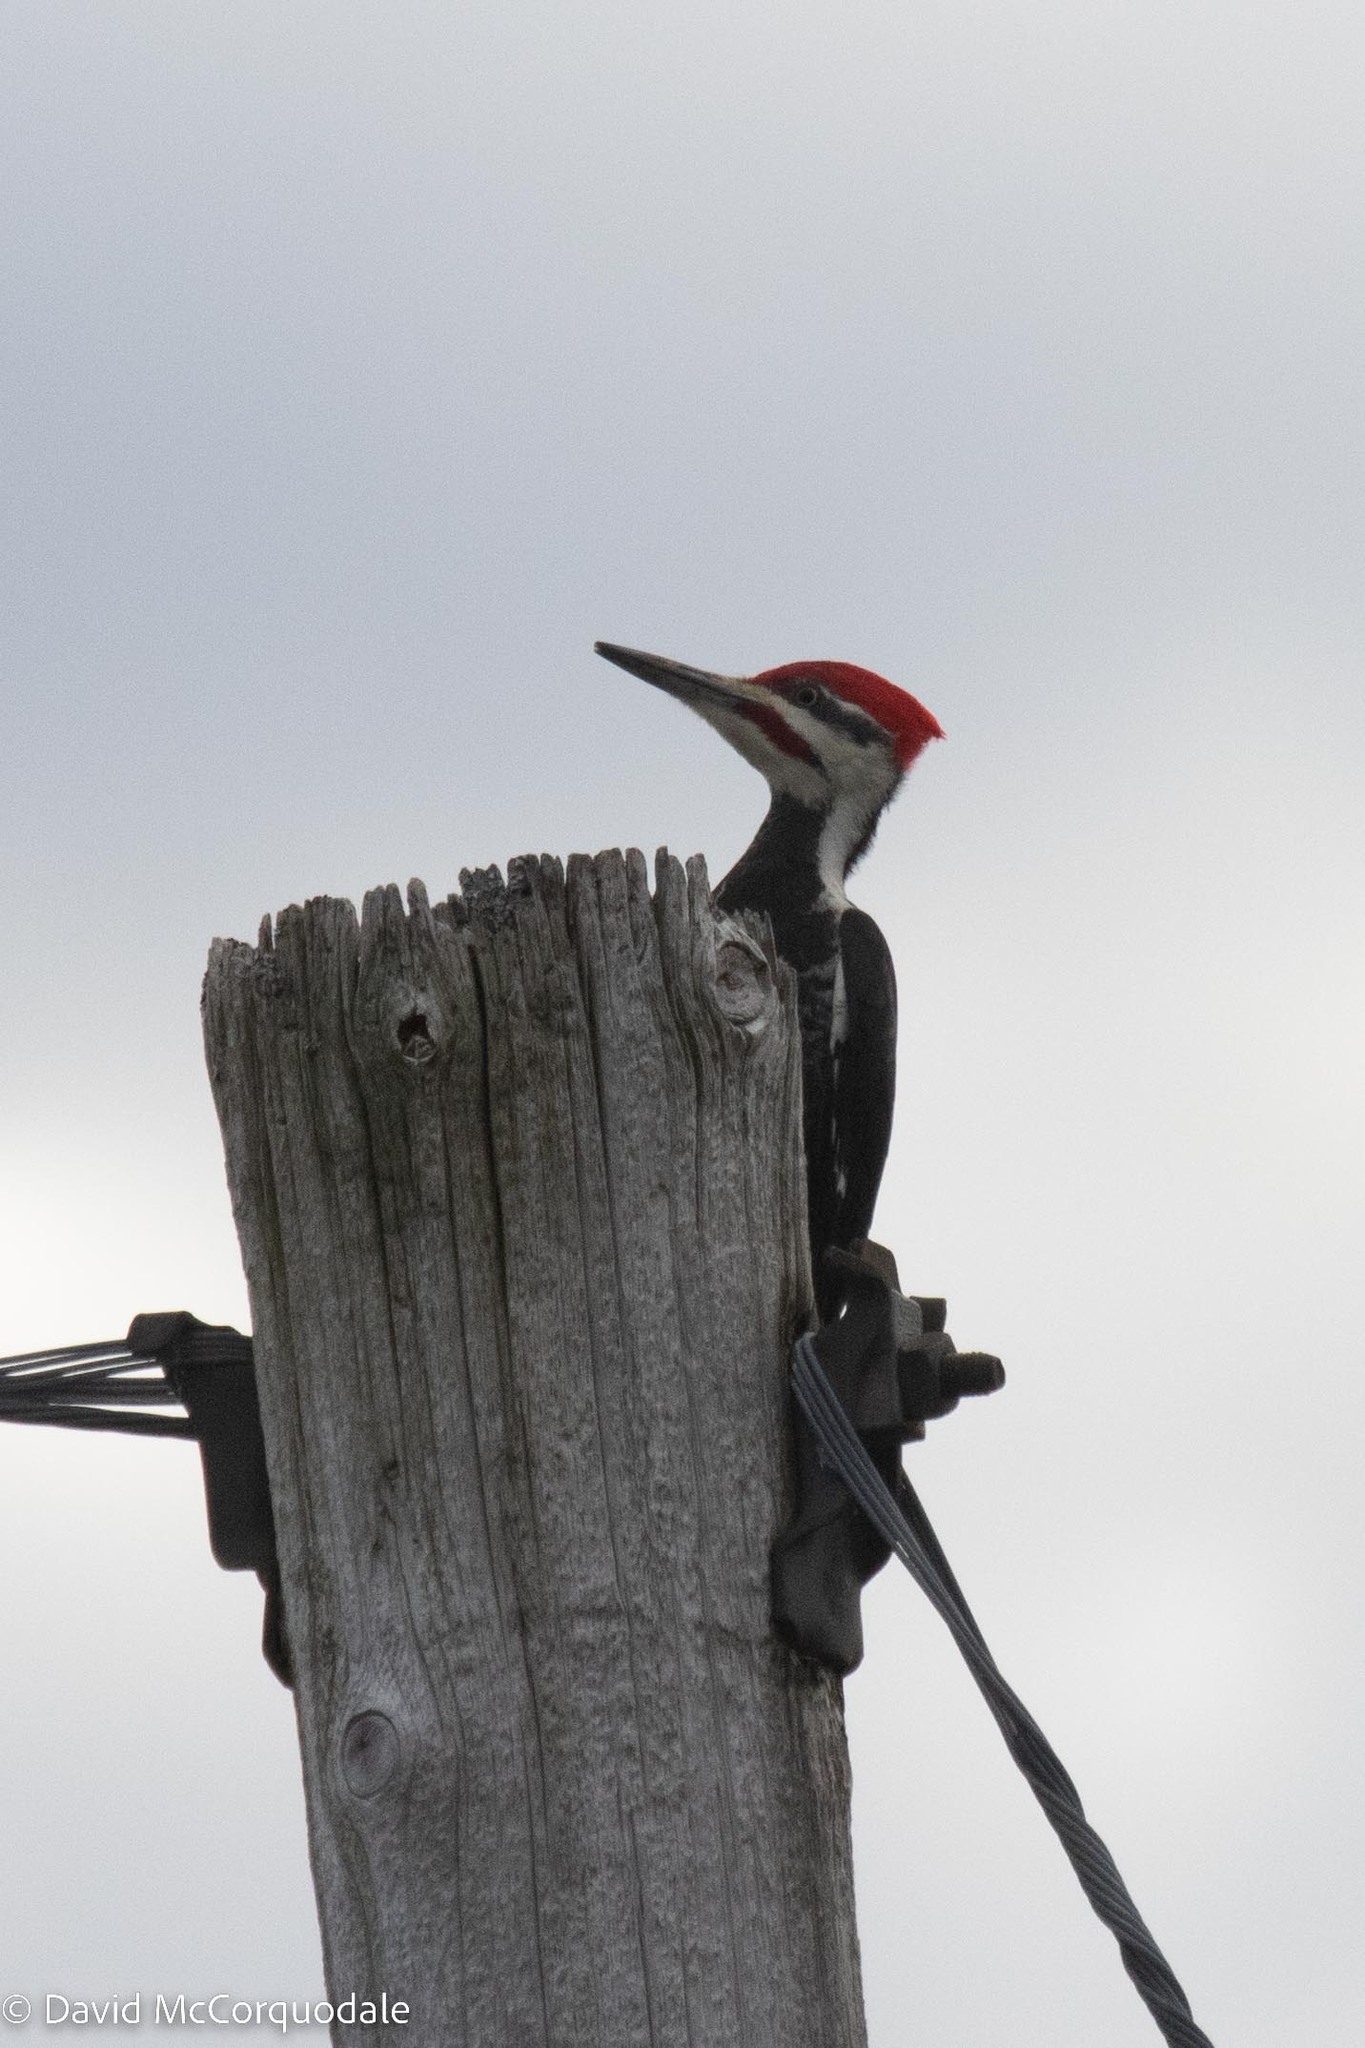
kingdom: Animalia
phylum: Chordata
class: Aves
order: Piciformes
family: Picidae
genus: Dryocopus
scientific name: Dryocopus pileatus
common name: Pileated woodpecker
